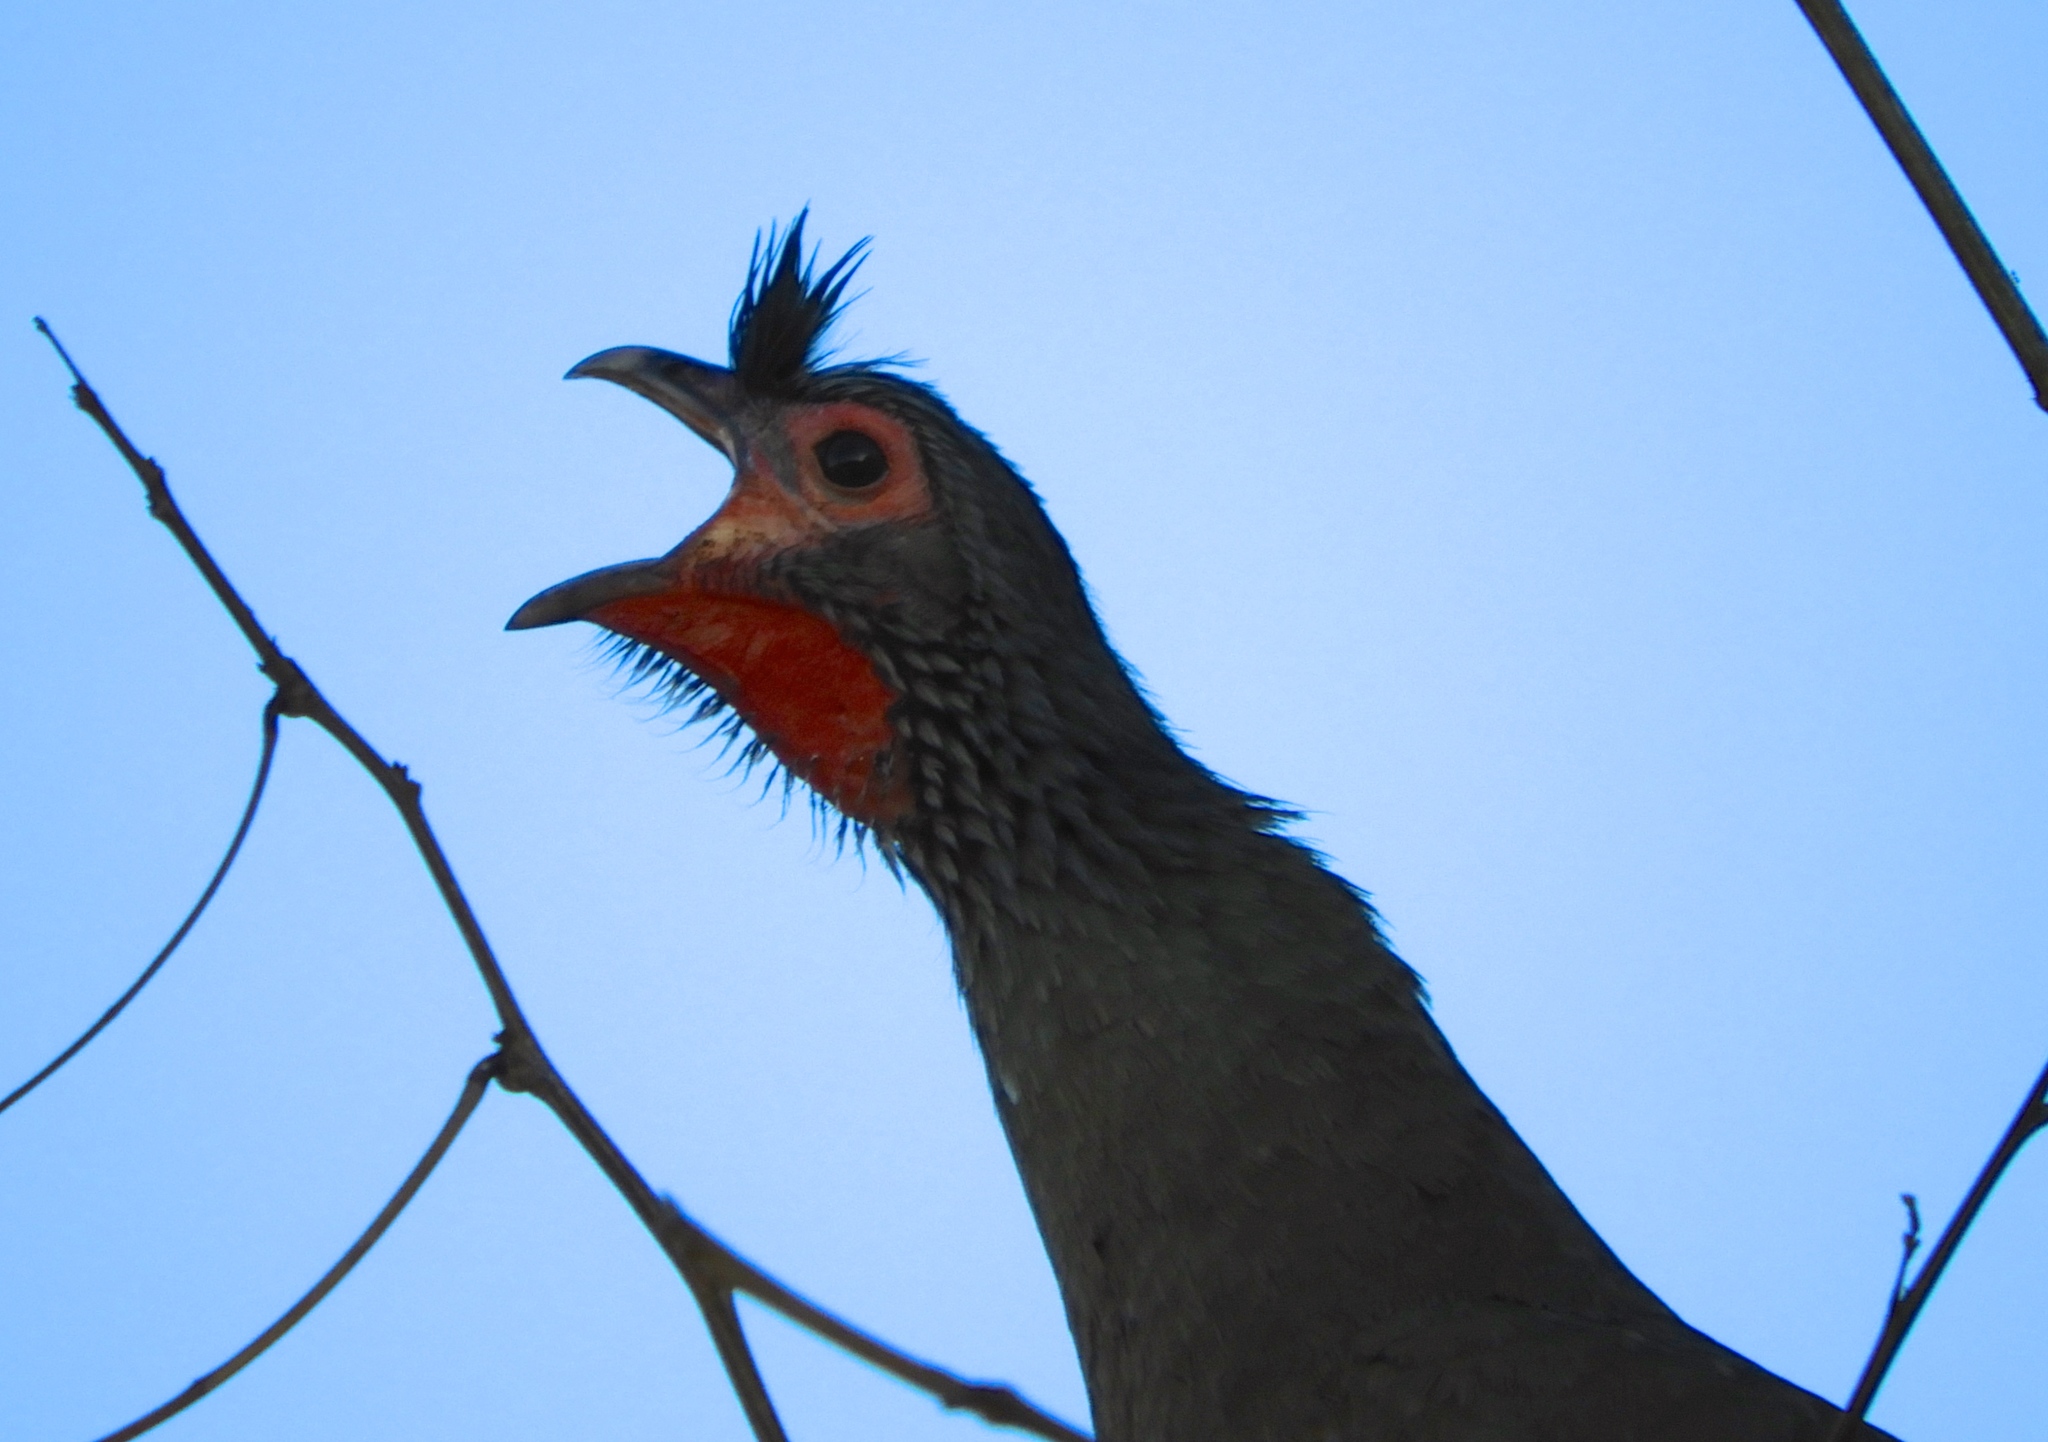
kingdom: Animalia
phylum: Chordata
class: Aves
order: Galliformes
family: Cracidae
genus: Ortalis
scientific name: Ortalis wagleri
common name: Rufous-bellied chachalaca
